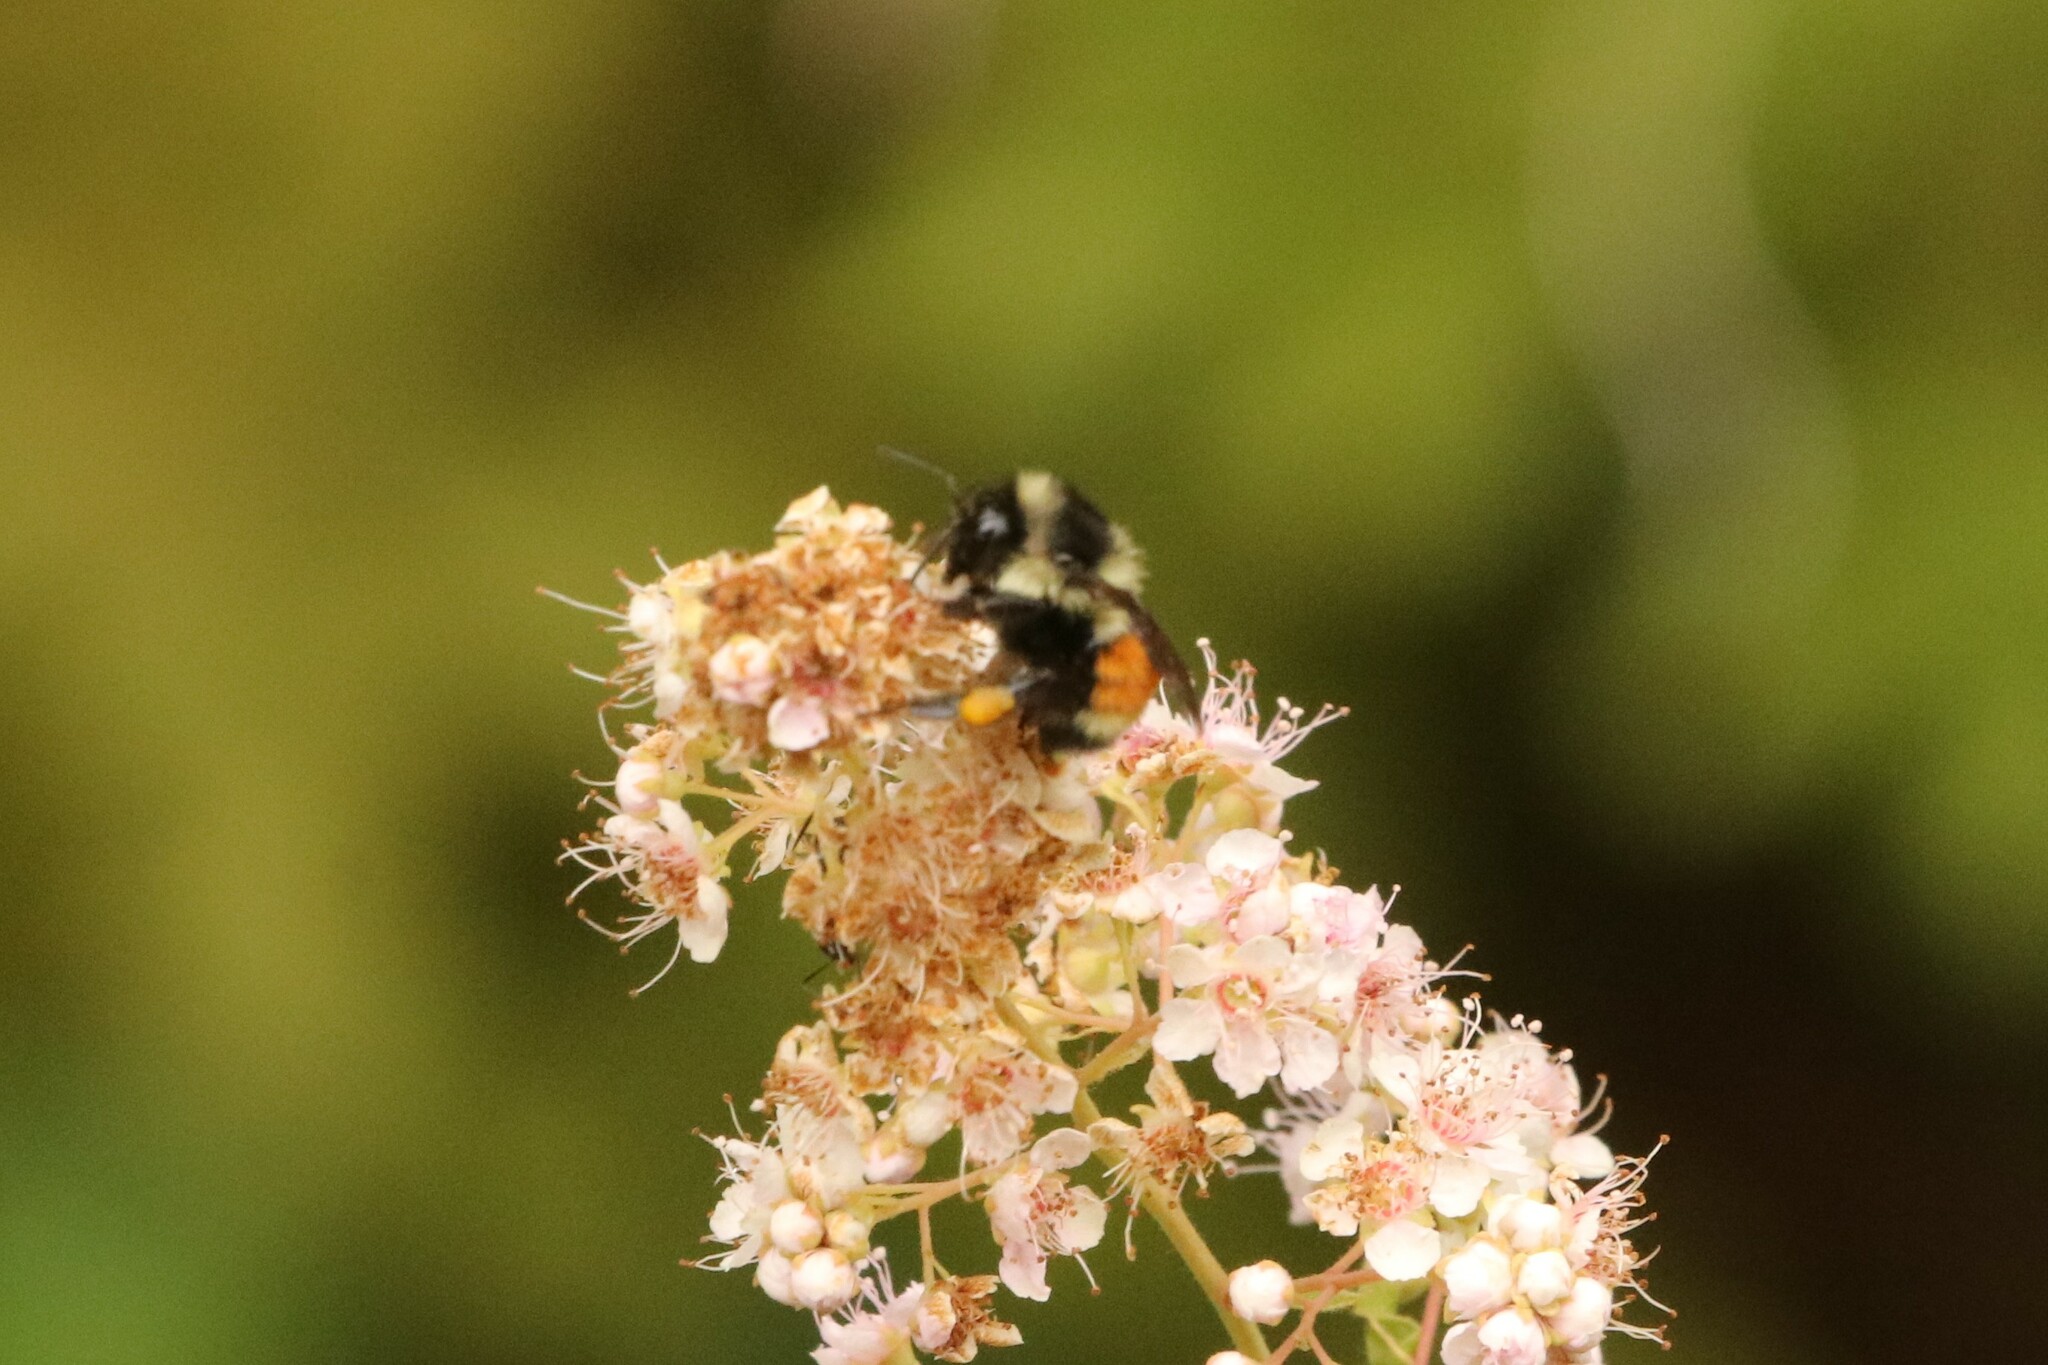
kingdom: Animalia
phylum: Arthropoda
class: Insecta
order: Hymenoptera
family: Apidae
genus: Bombus
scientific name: Bombus ternarius
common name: Tri-colored bumble bee
